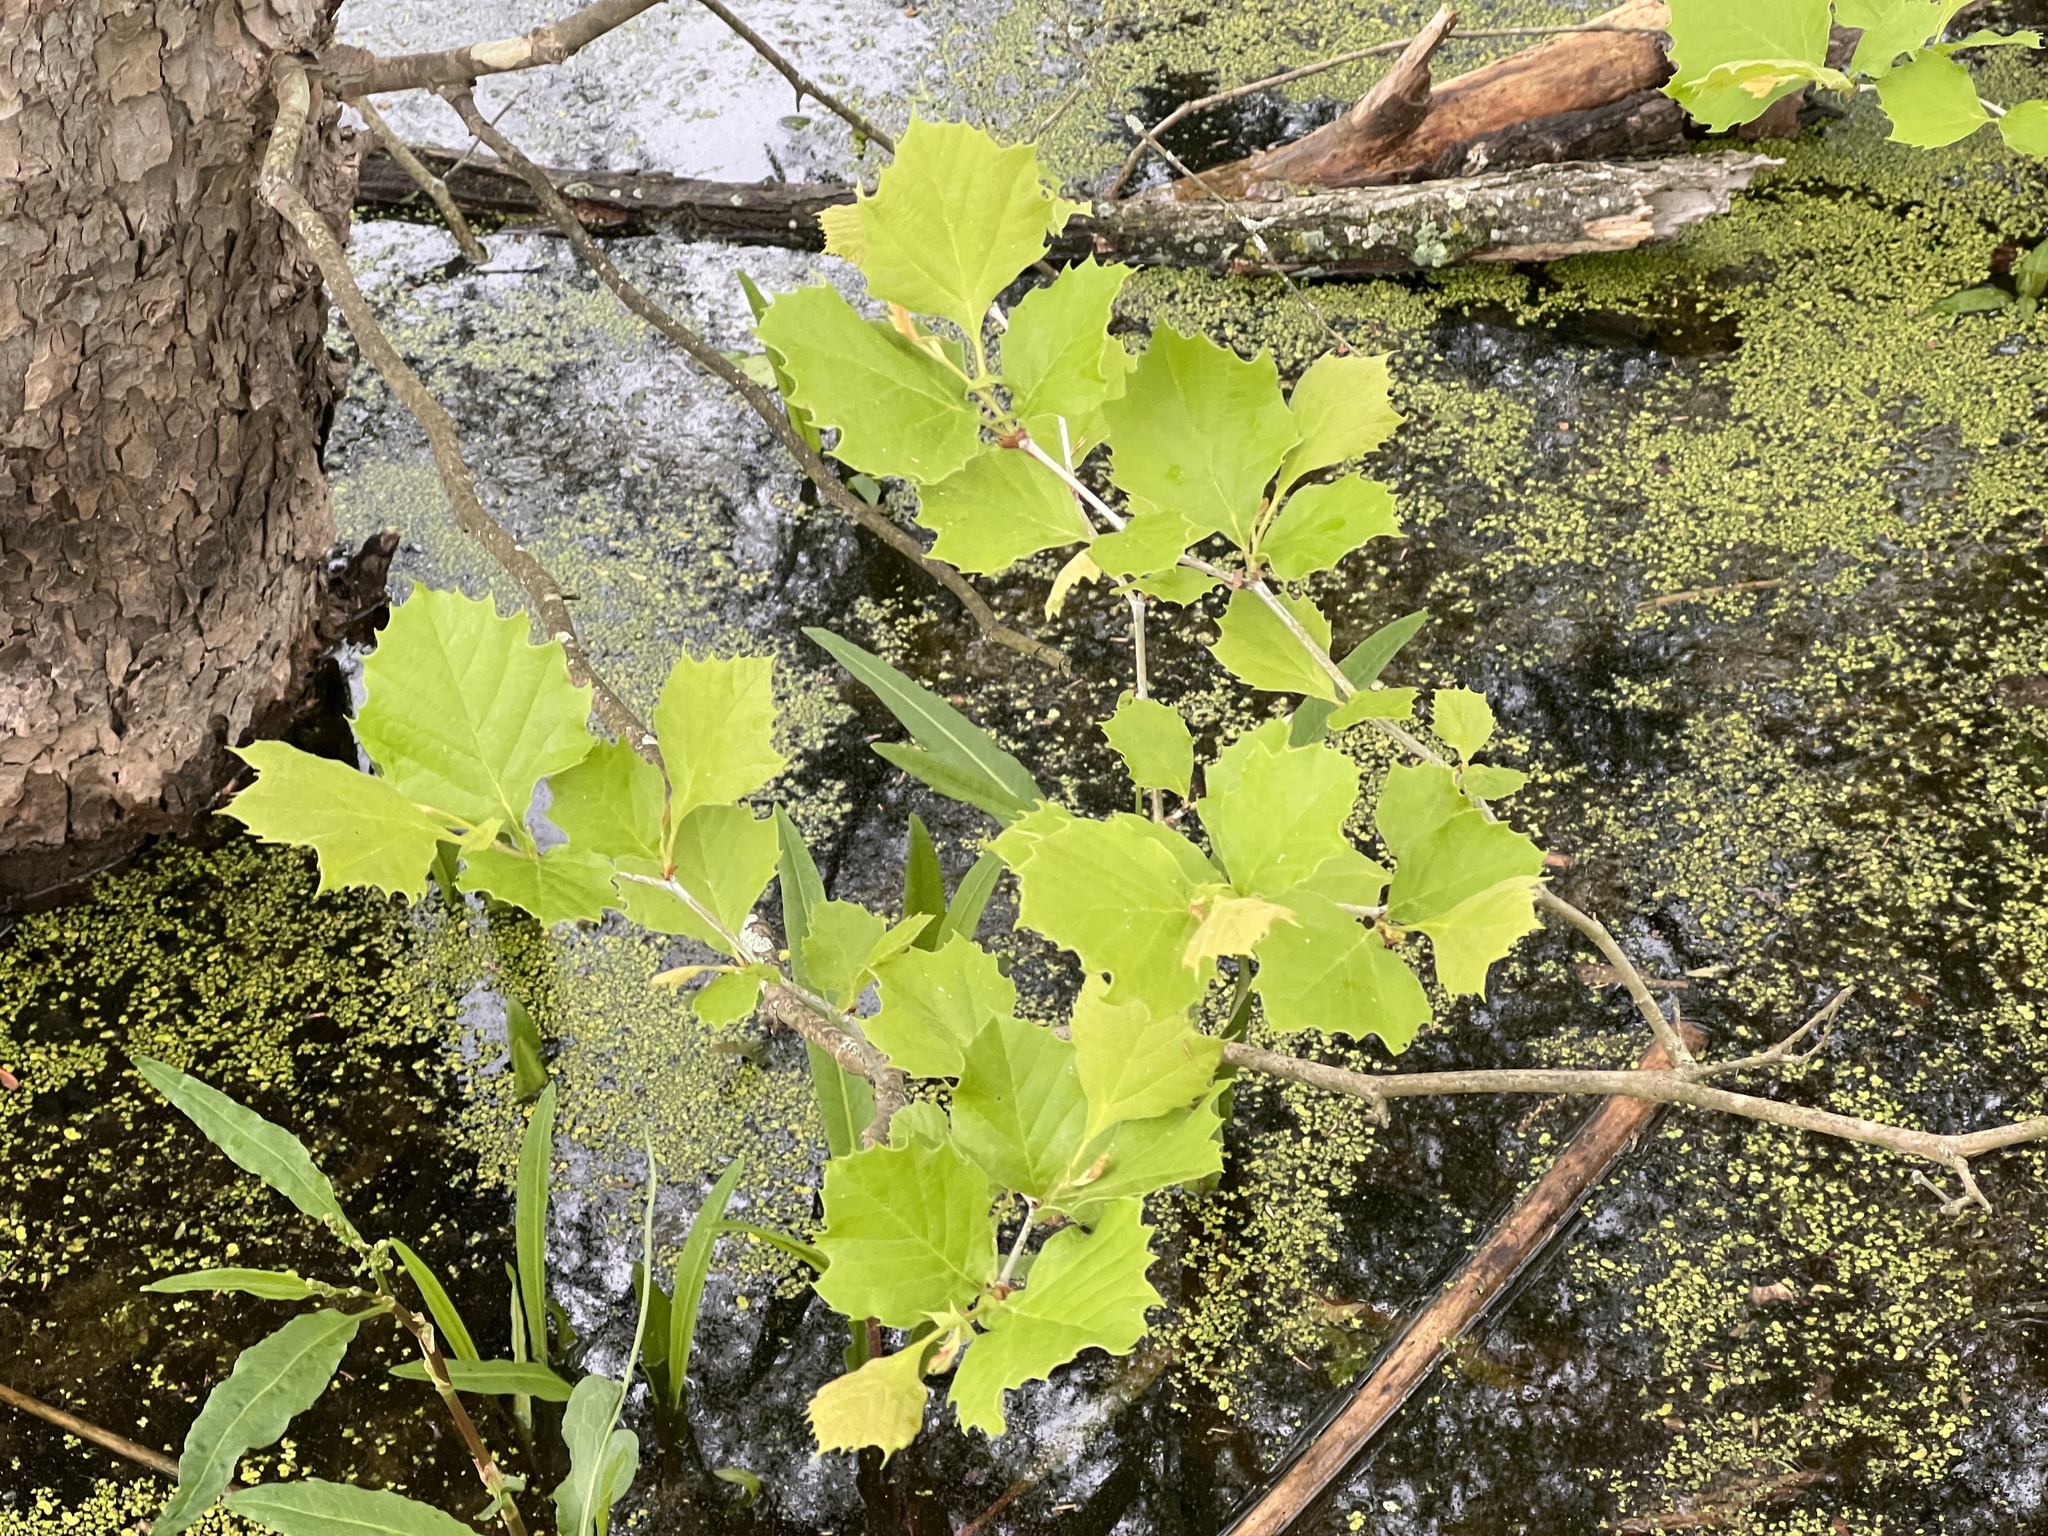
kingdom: Plantae
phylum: Tracheophyta
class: Magnoliopsida
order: Proteales
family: Platanaceae
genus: Platanus
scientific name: Platanus occidentalis
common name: American sycamore
